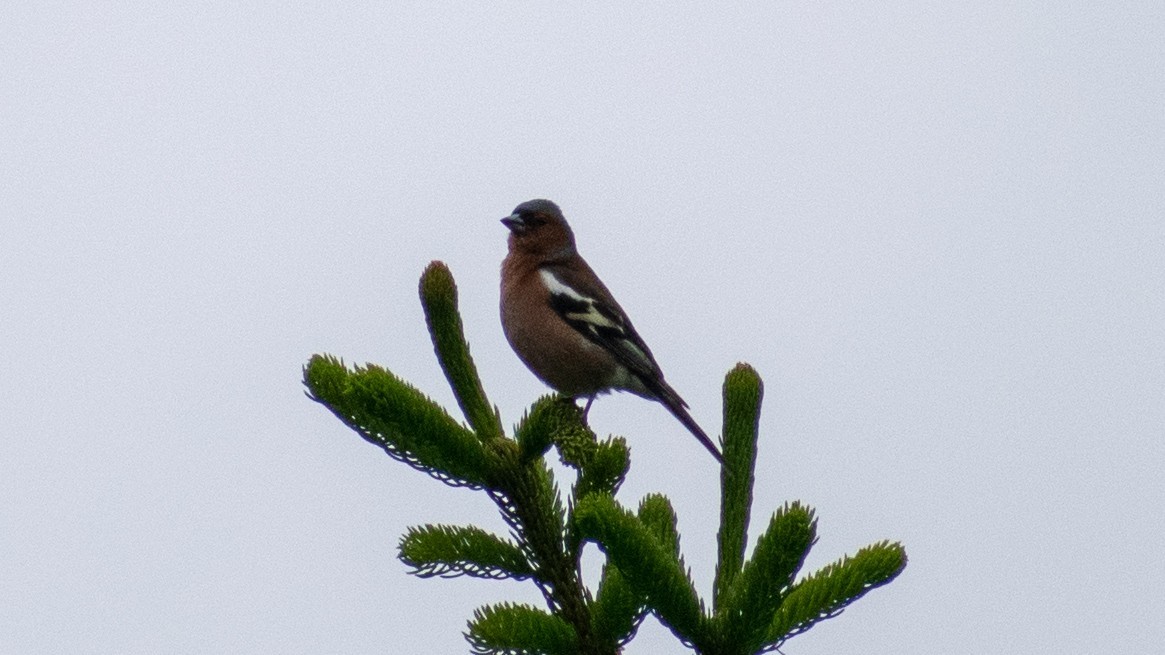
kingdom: Animalia
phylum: Chordata
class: Aves
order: Passeriformes
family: Fringillidae
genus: Fringilla
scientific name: Fringilla coelebs
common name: Common chaffinch
